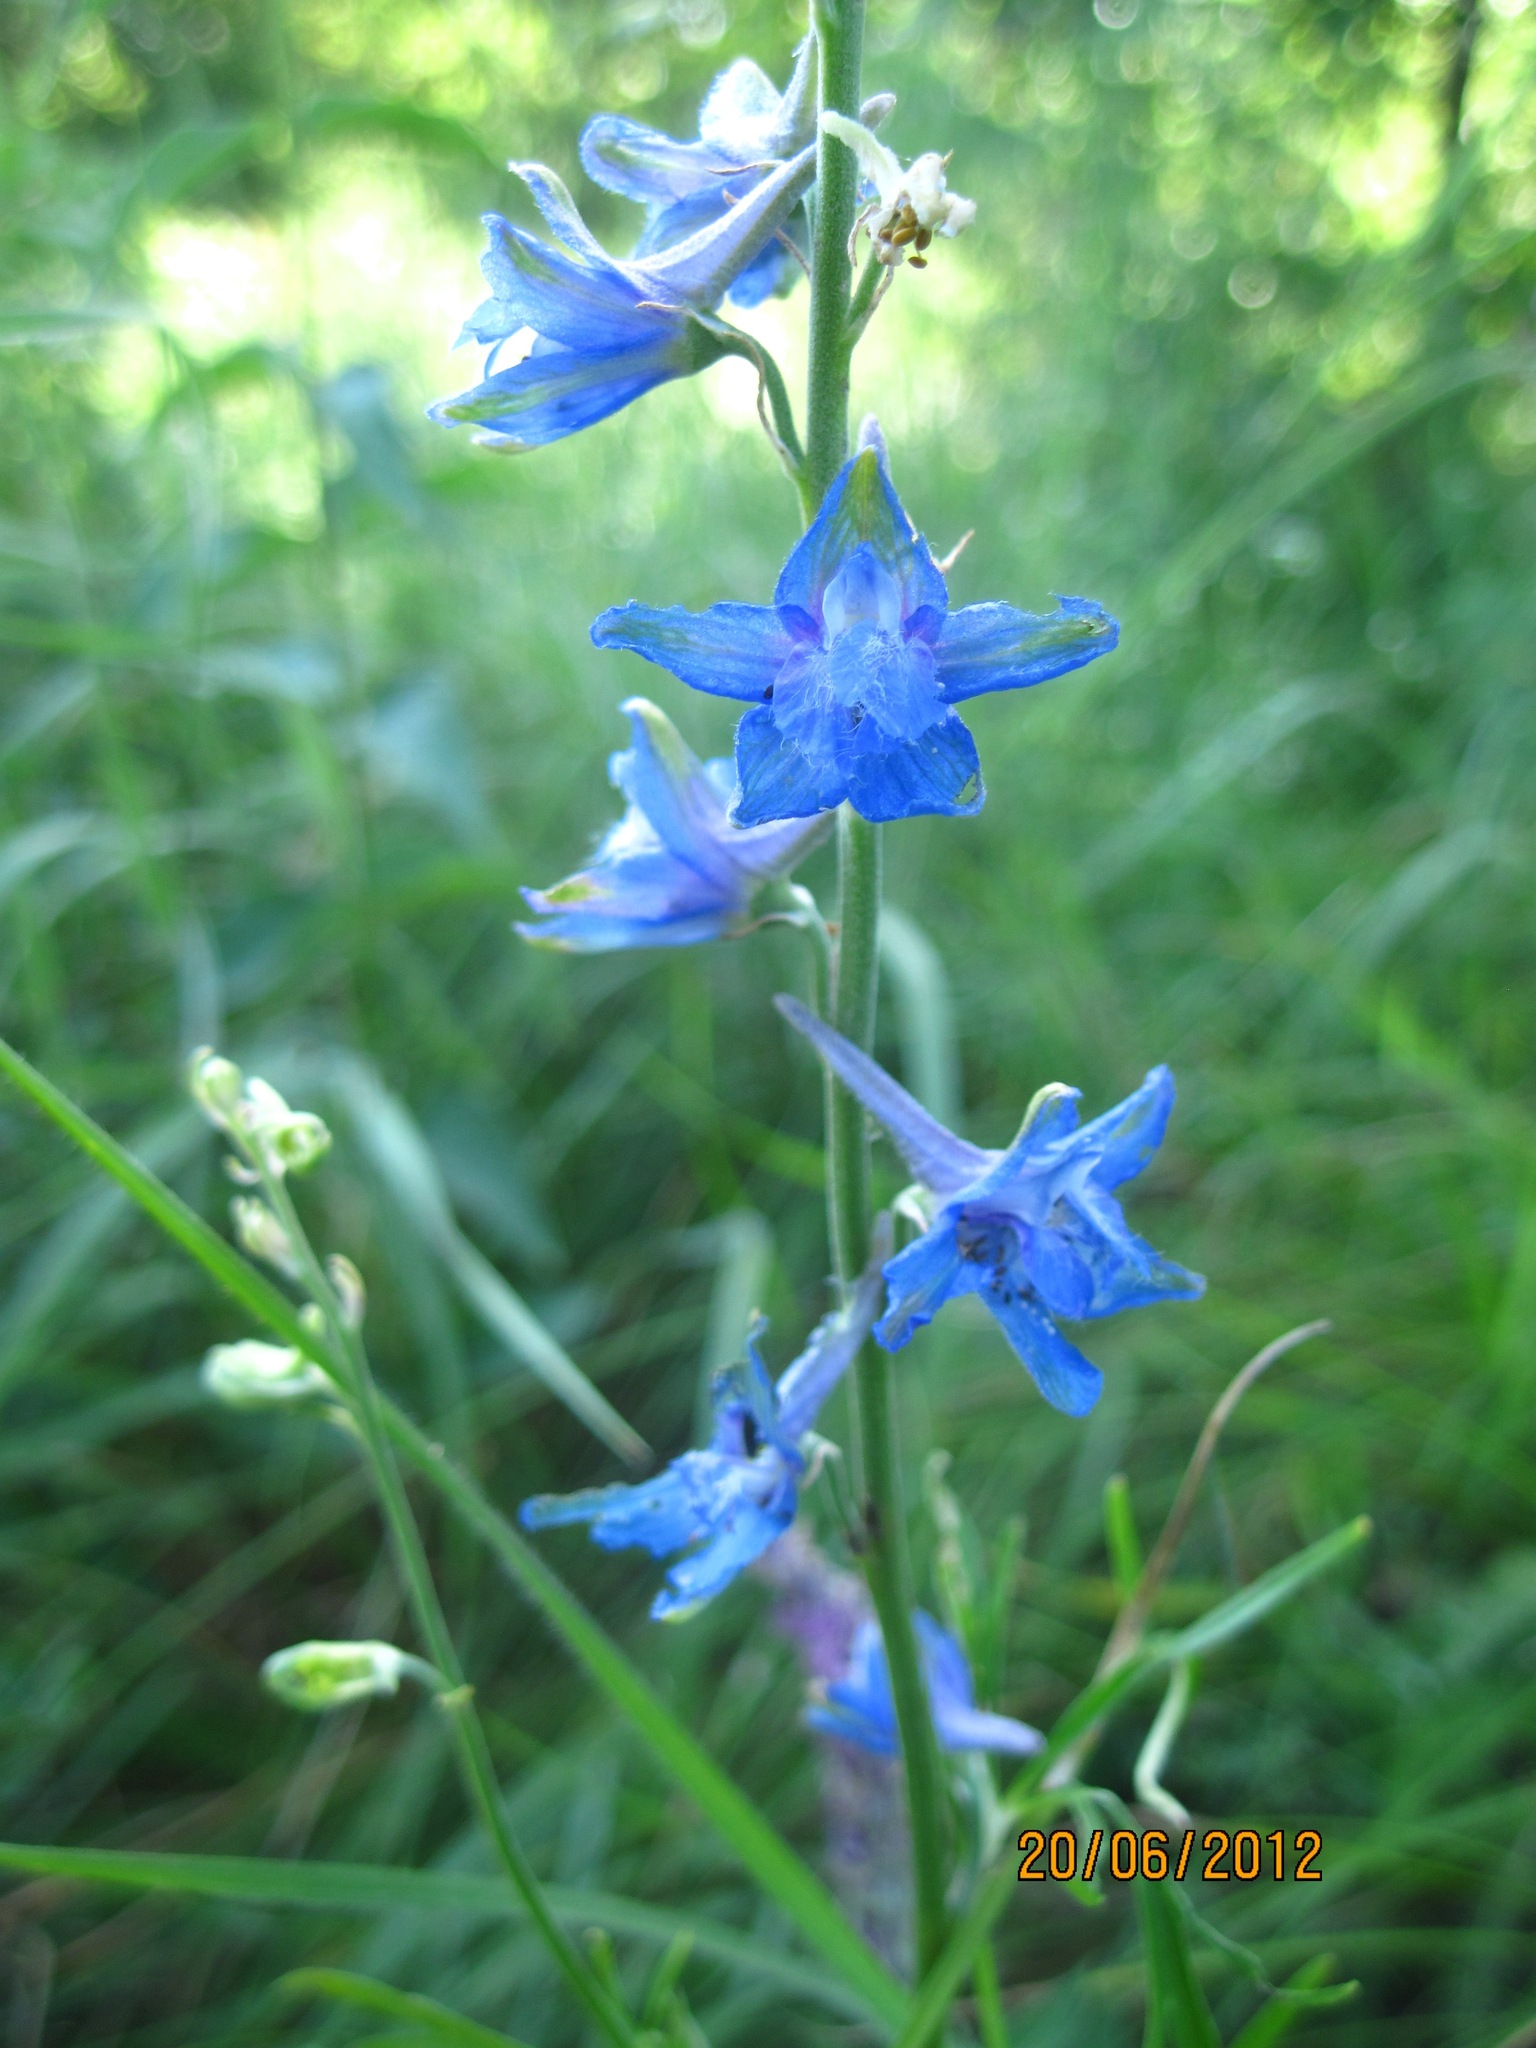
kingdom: Plantae
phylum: Tracheophyta
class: Magnoliopsida
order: Ranunculales
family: Ranunculaceae
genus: Delphinium
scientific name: Delphinium schmalhausenii
